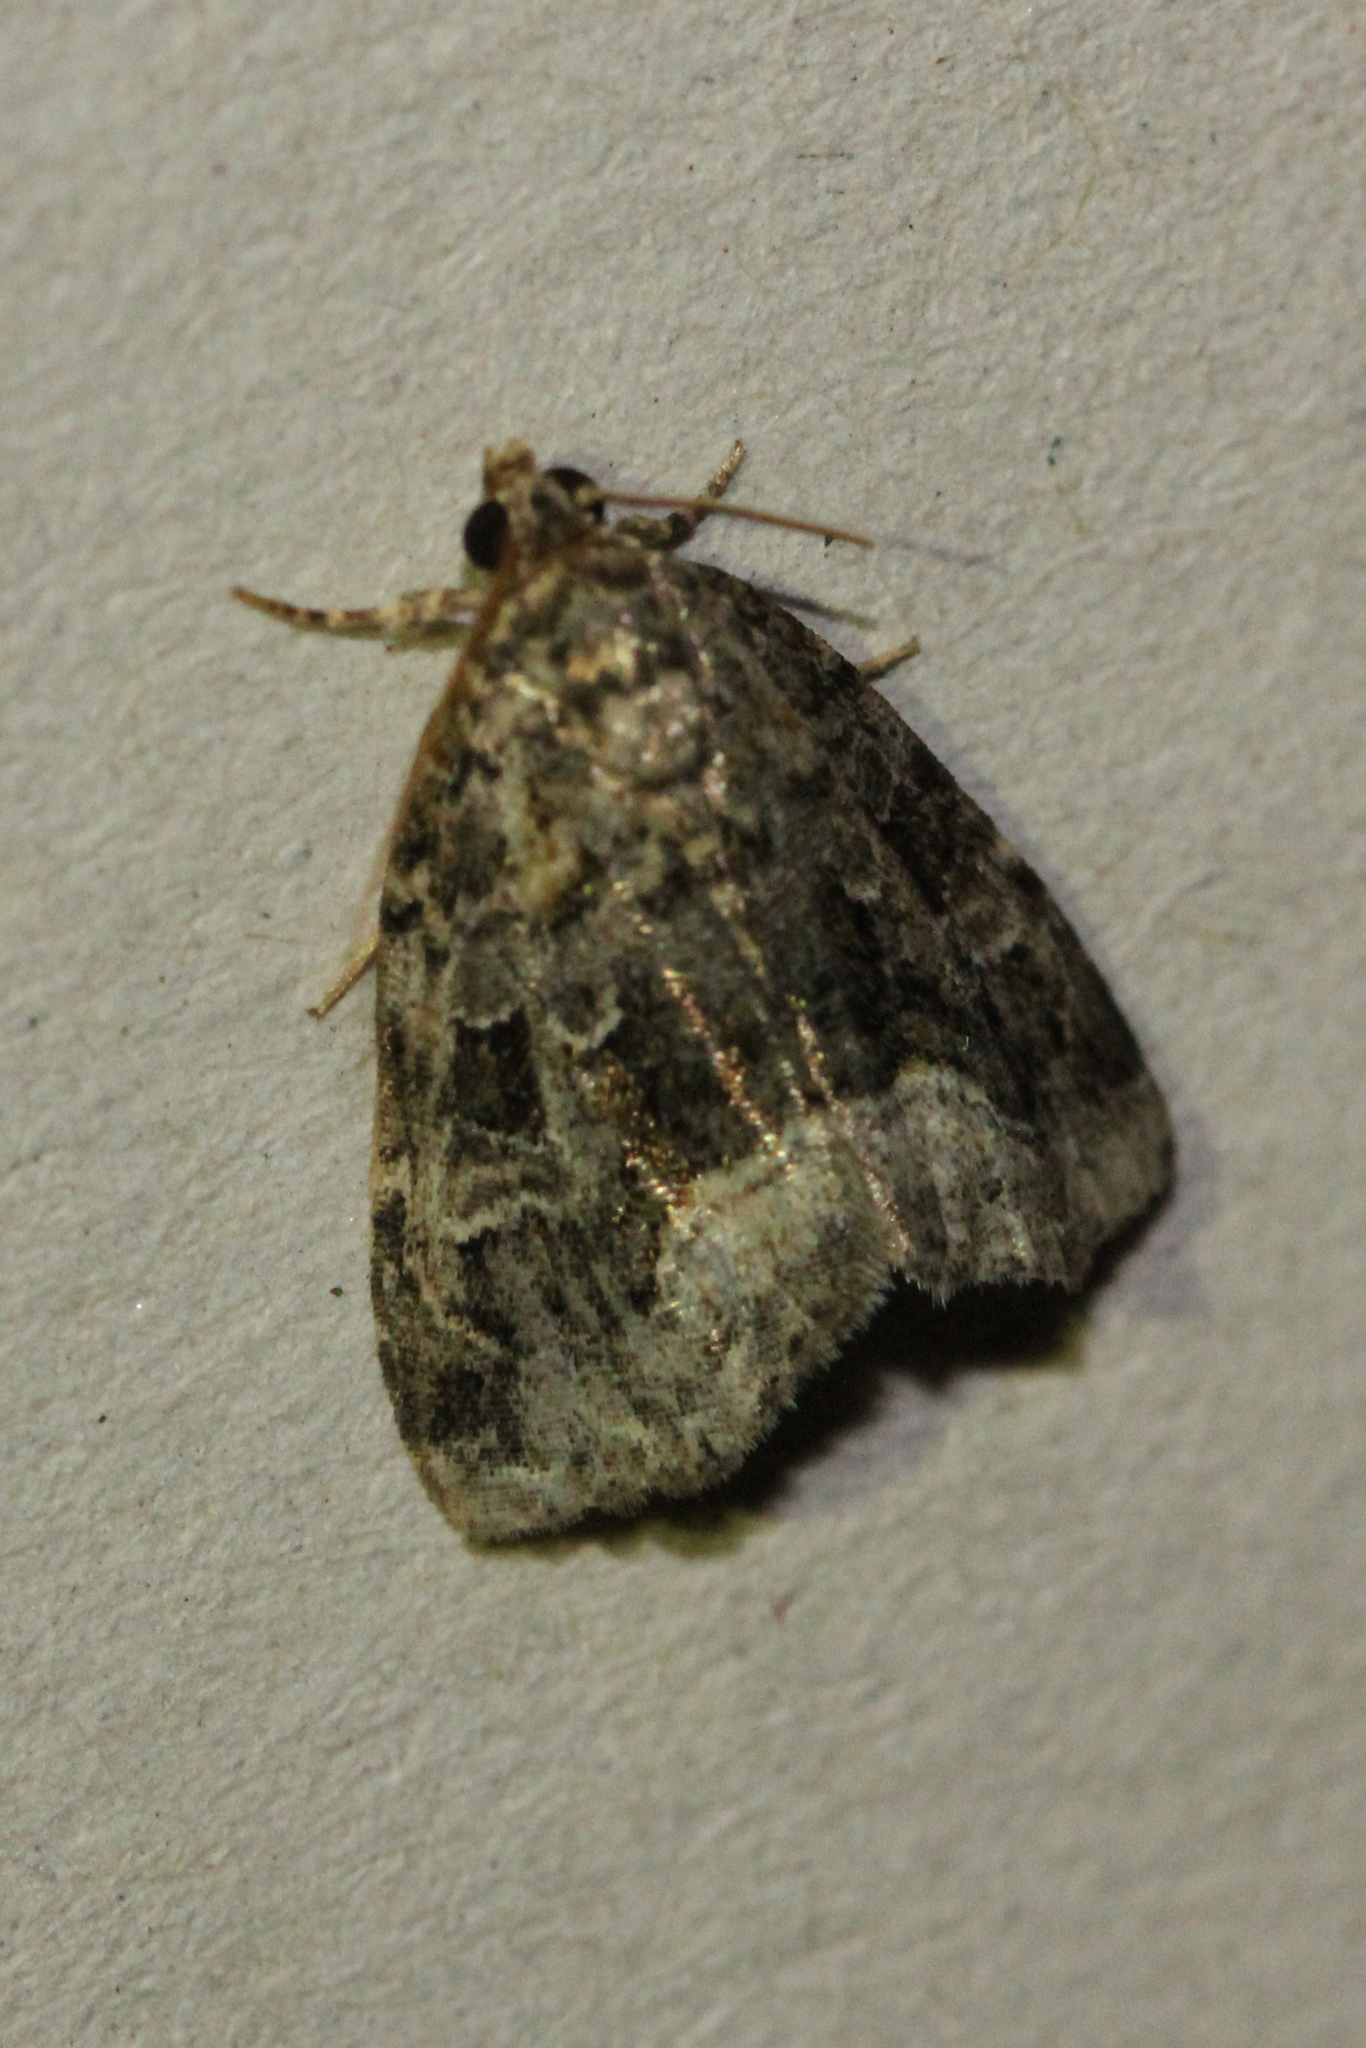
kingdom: Animalia
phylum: Arthropoda
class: Insecta
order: Lepidoptera
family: Noctuidae
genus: Protodeltote
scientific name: Protodeltote muscosula
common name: Large mossy glyph
